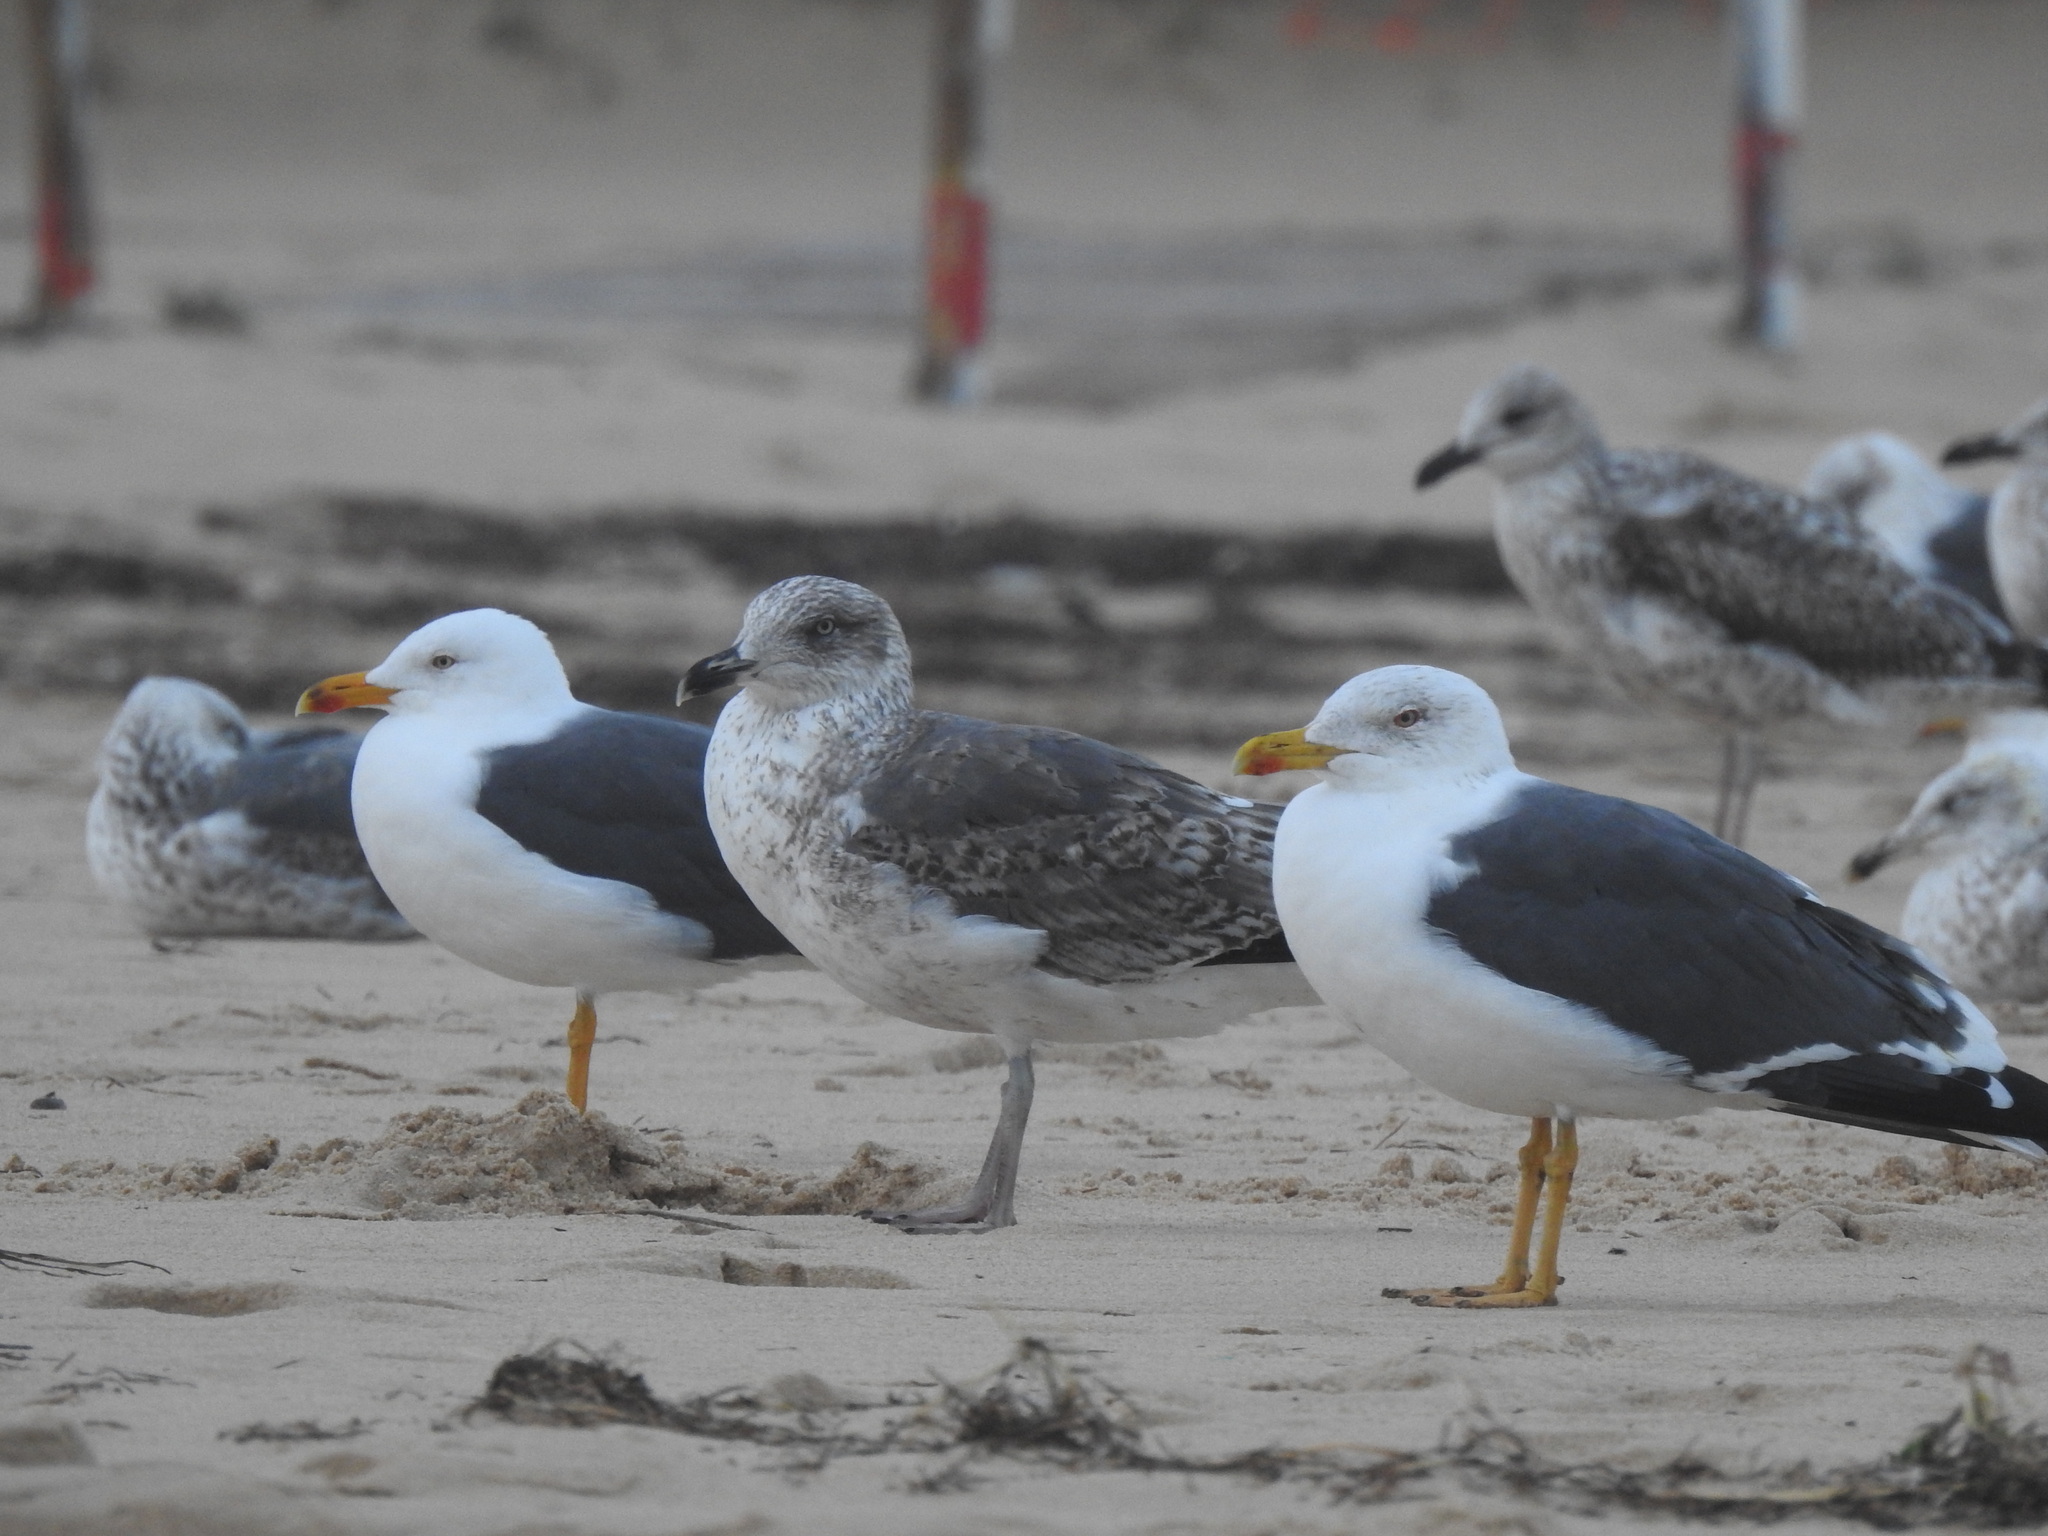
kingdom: Animalia
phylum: Chordata
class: Aves
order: Charadriiformes
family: Laridae
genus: Larus
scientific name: Larus fuscus
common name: Lesser black-backed gull
